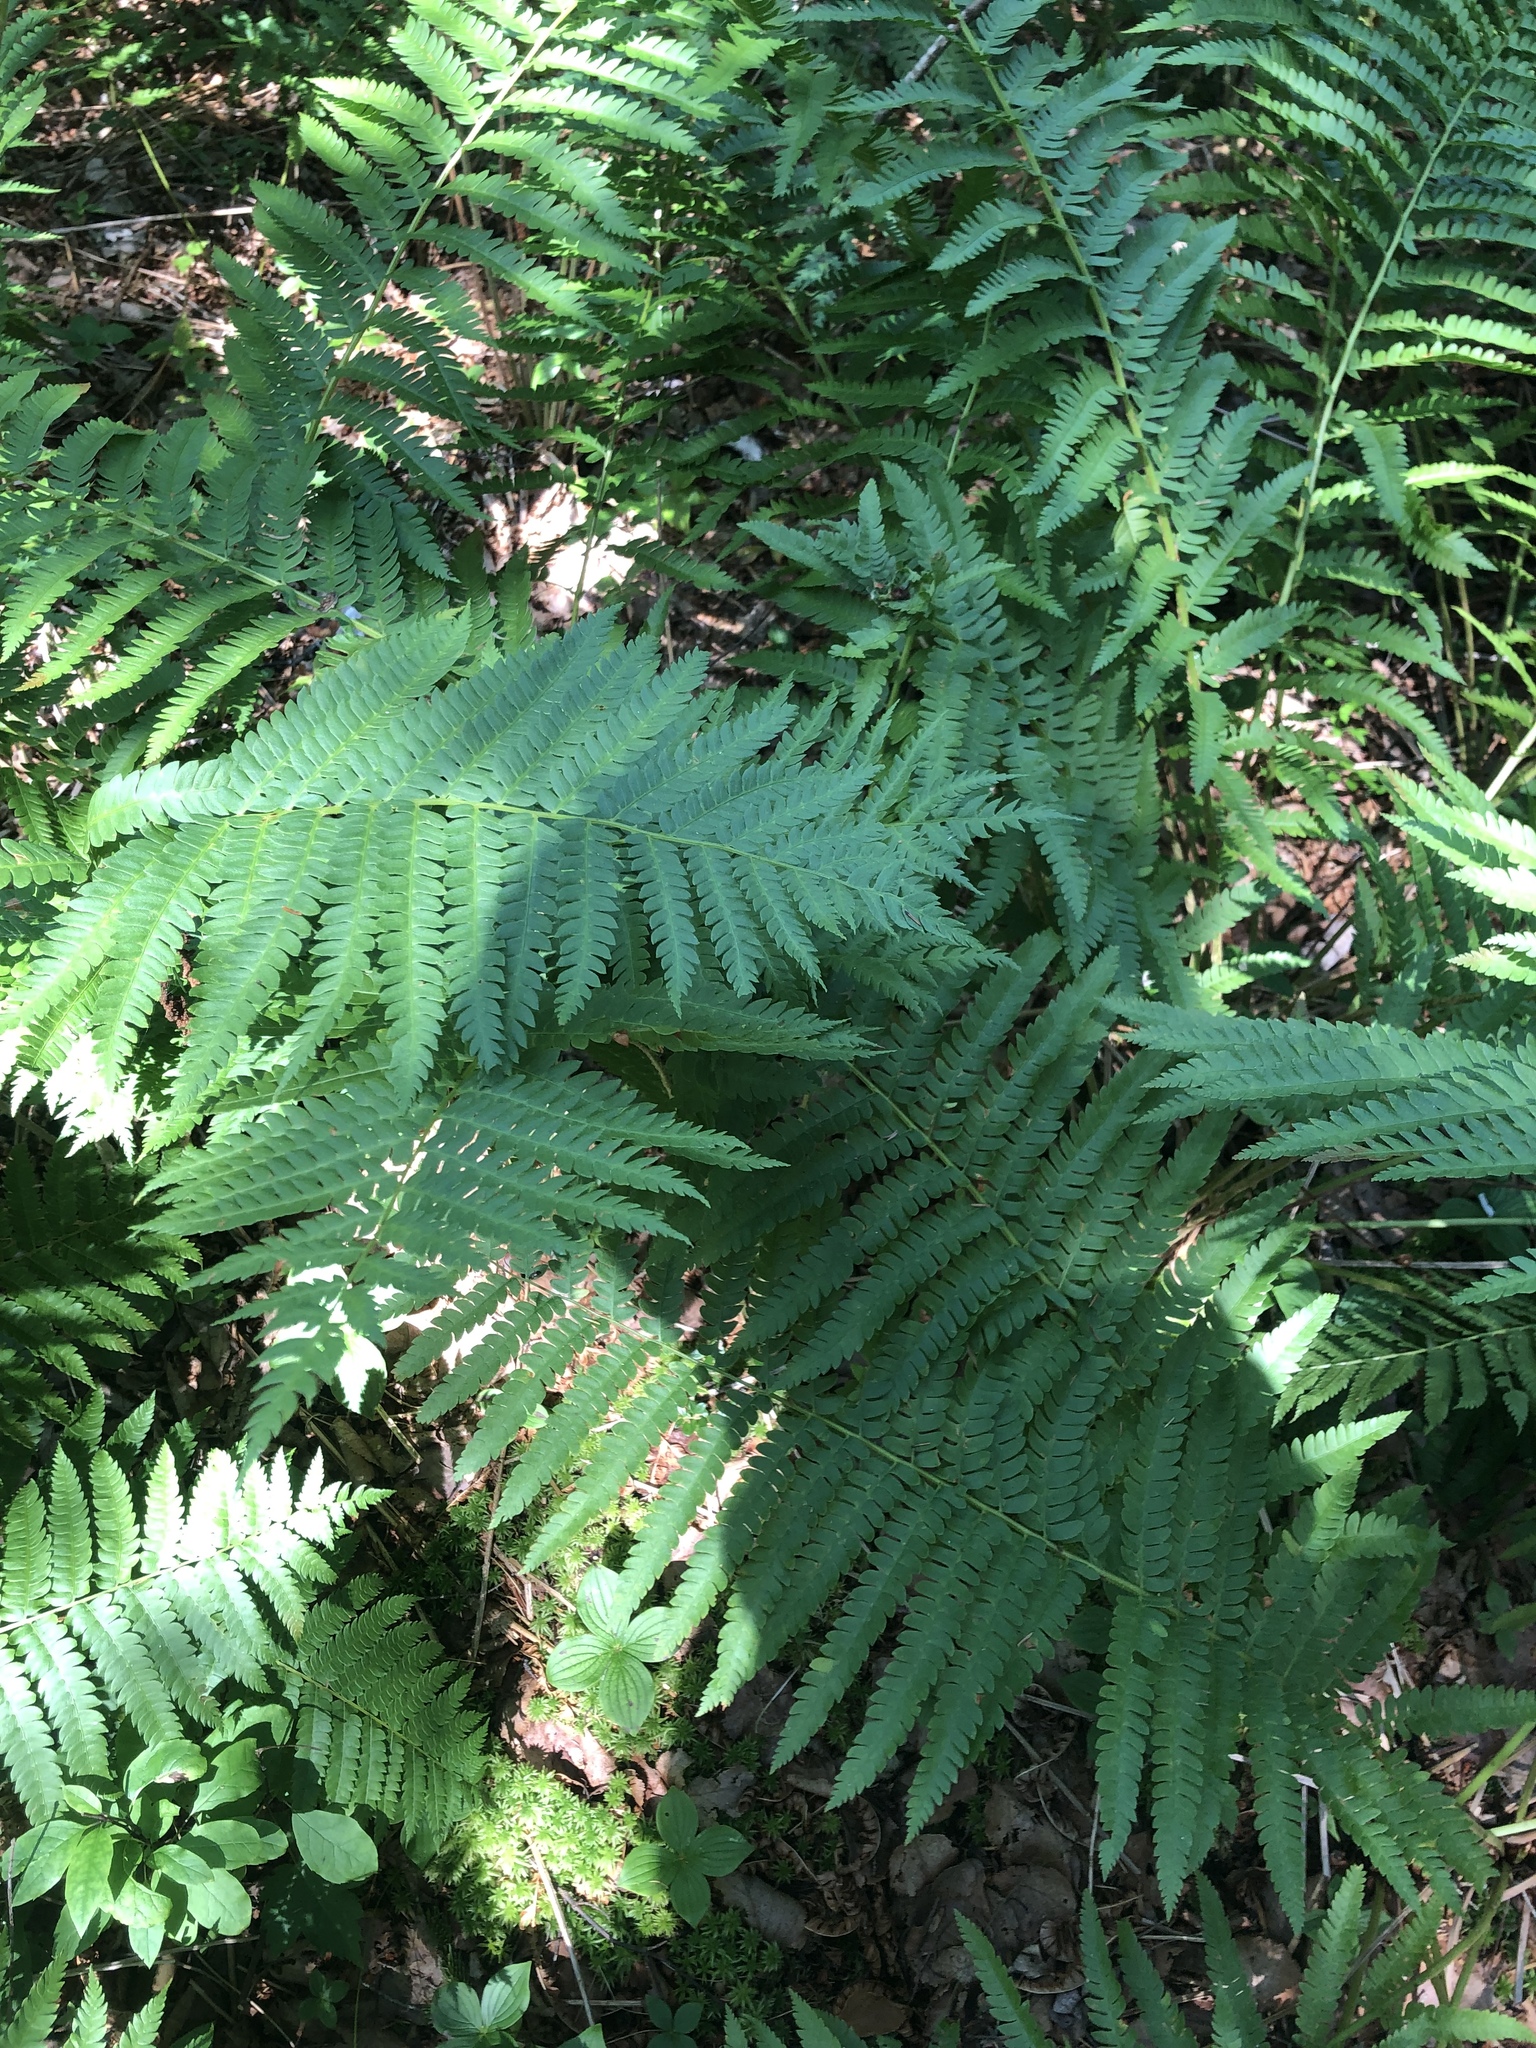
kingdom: Plantae
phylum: Tracheophyta
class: Polypodiopsida
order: Osmundales
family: Osmundaceae
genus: Osmundastrum
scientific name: Osmundastrum cinnamomeum
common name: Cinnamon fern
